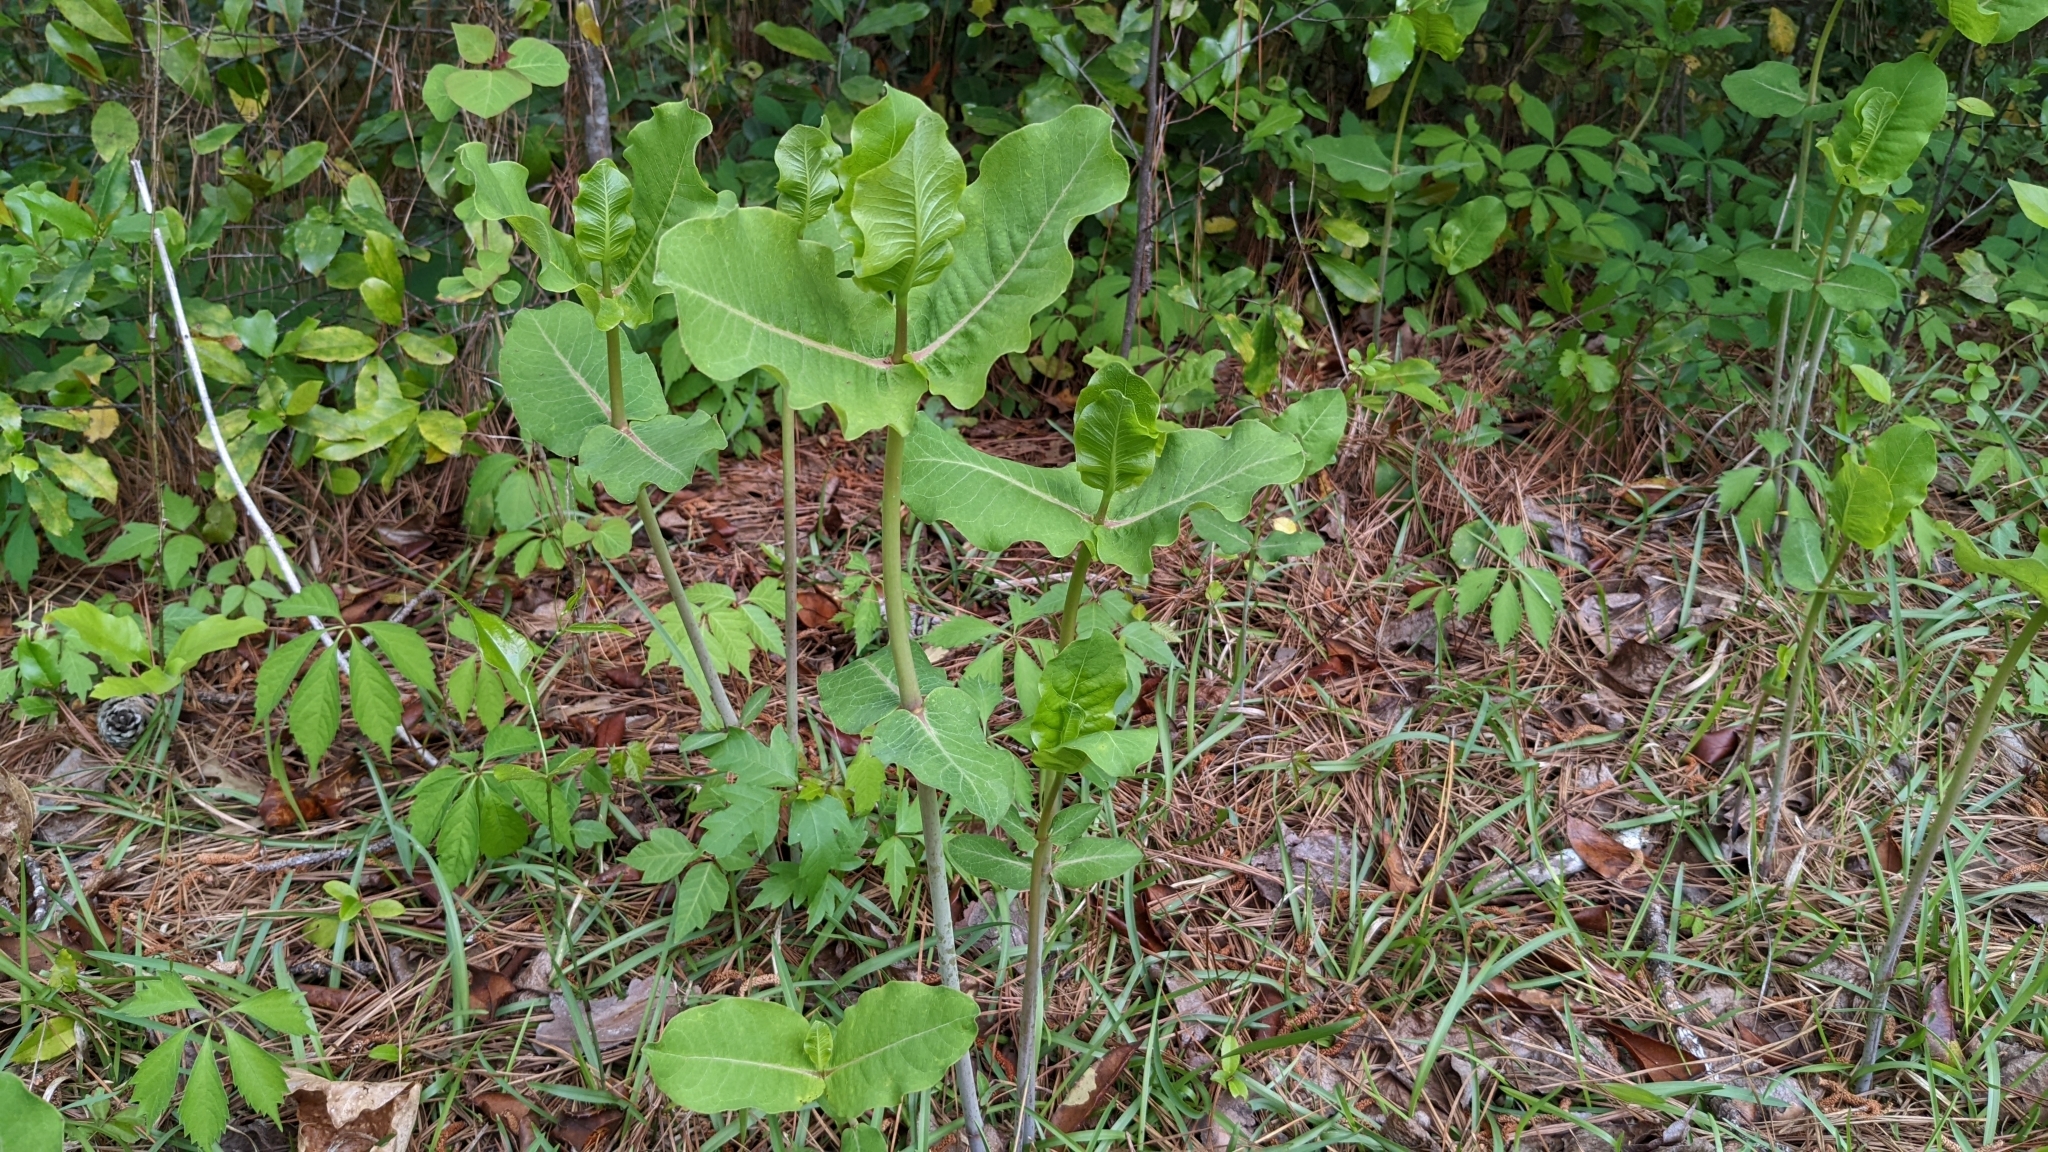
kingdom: Plantae
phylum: Tracheophyta
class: Magnoliopsida
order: Gentianales
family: Apocynaceae
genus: Asclepias
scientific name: Asclepias amplexicaulis
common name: Blunt-leaf milkweed
